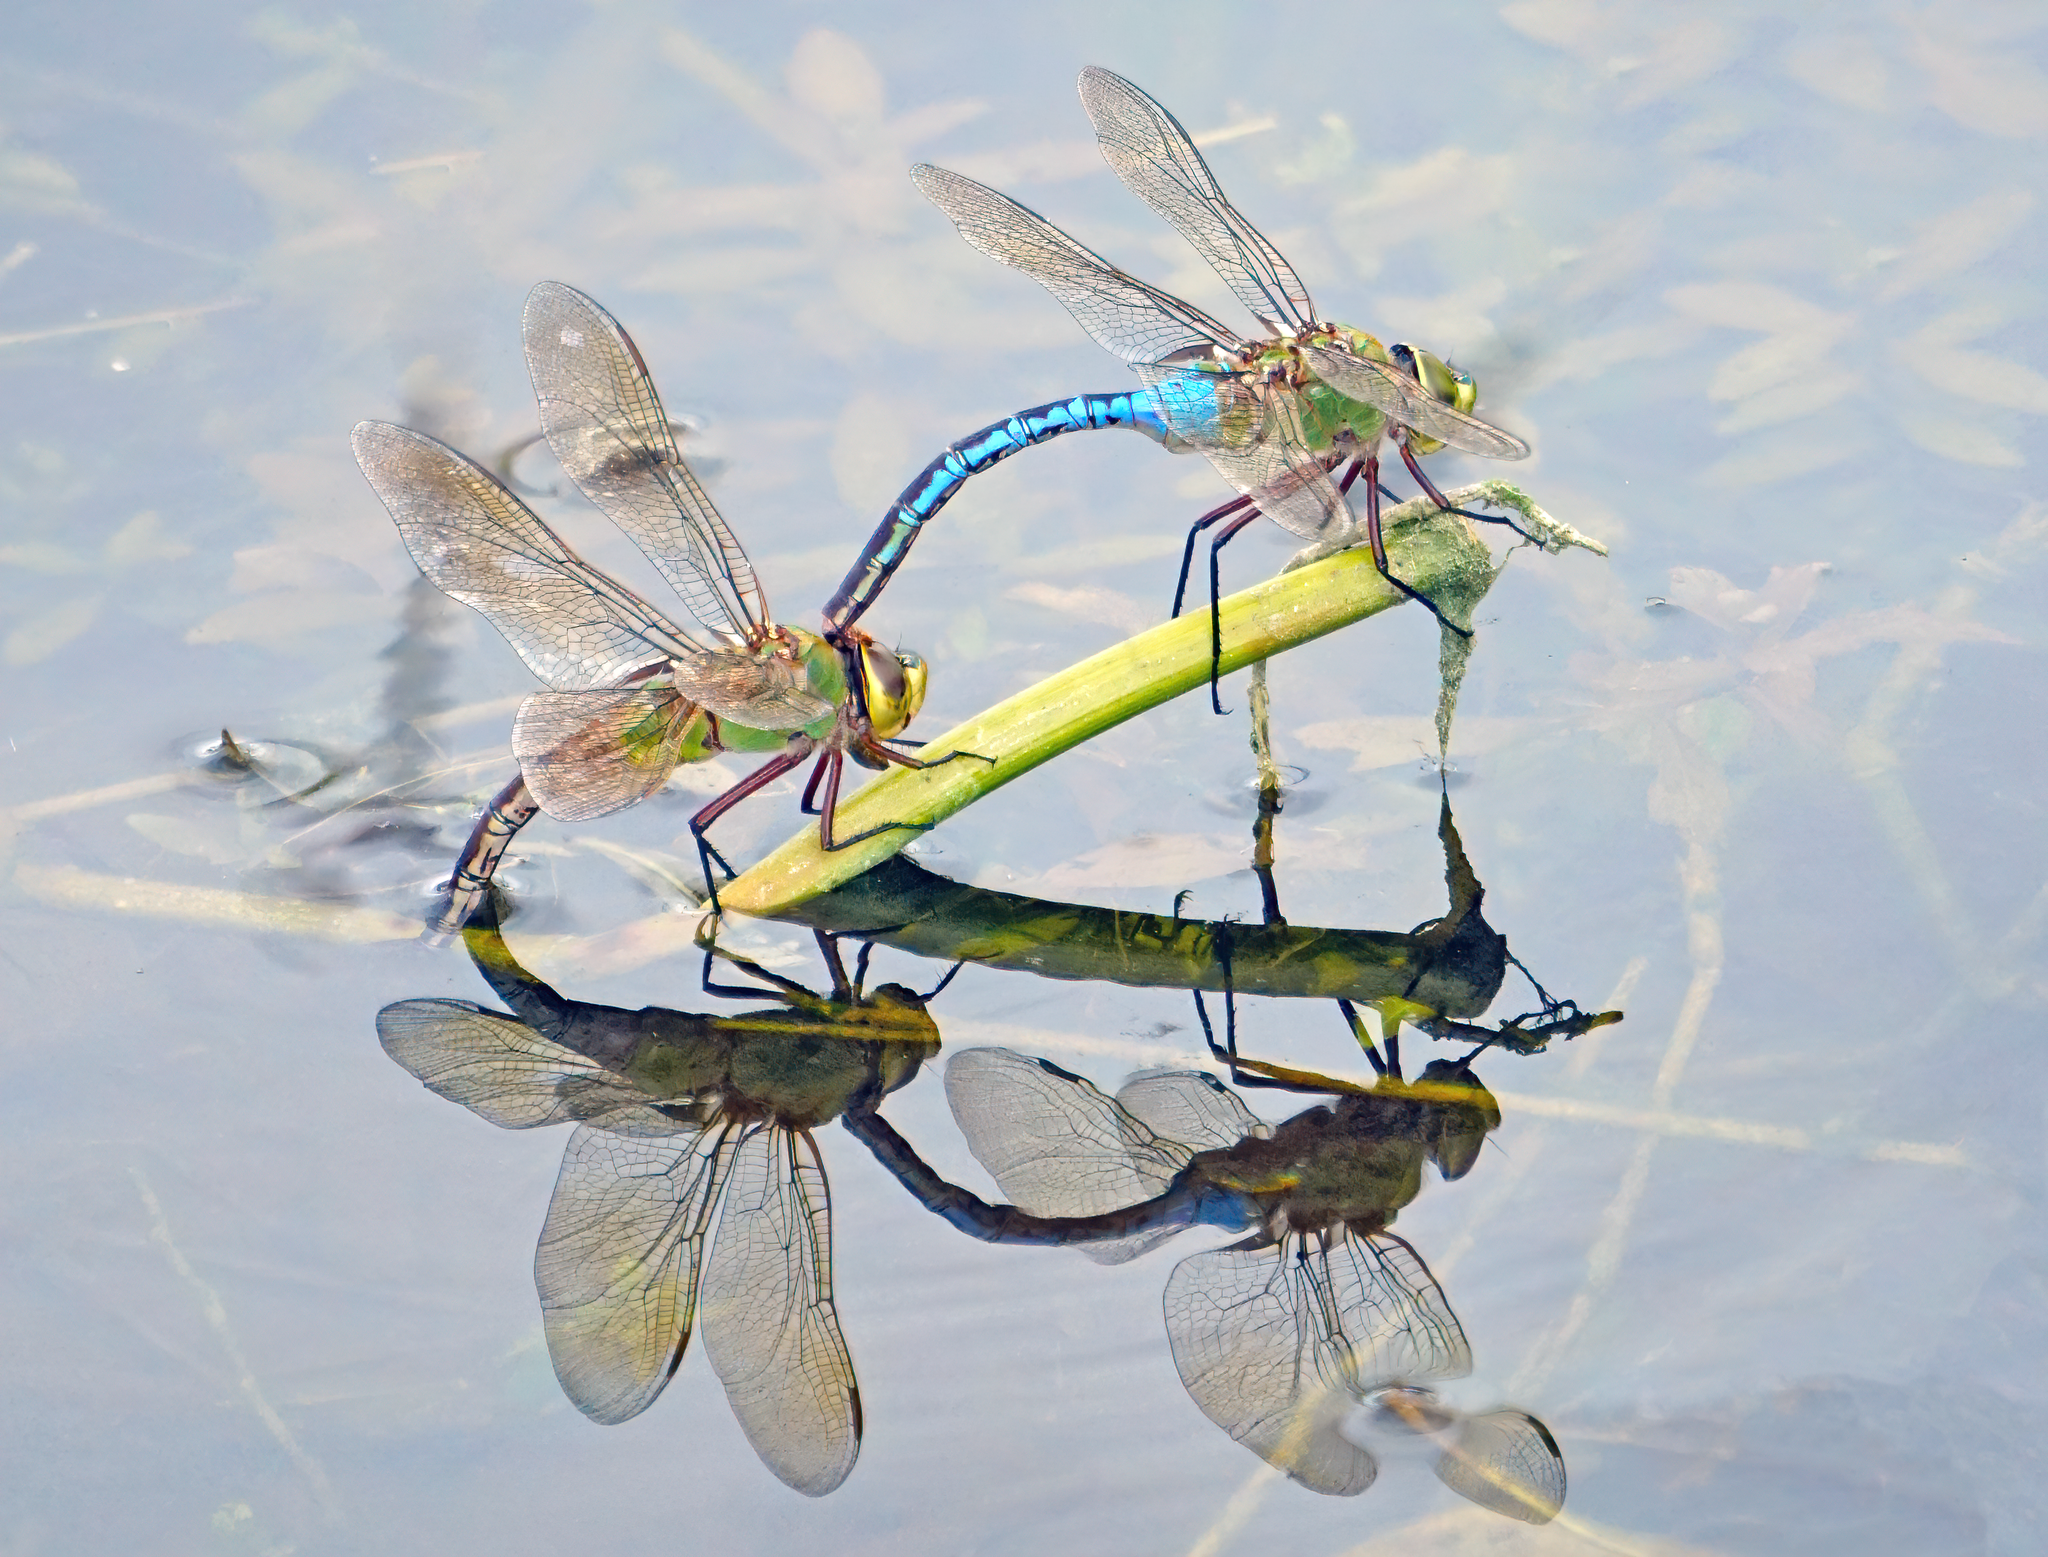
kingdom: Animalia
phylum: Arthropoda
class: Insecta
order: Odonata
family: Aeshnidae
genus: Anax
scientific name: Anax junius
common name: Common green darner
